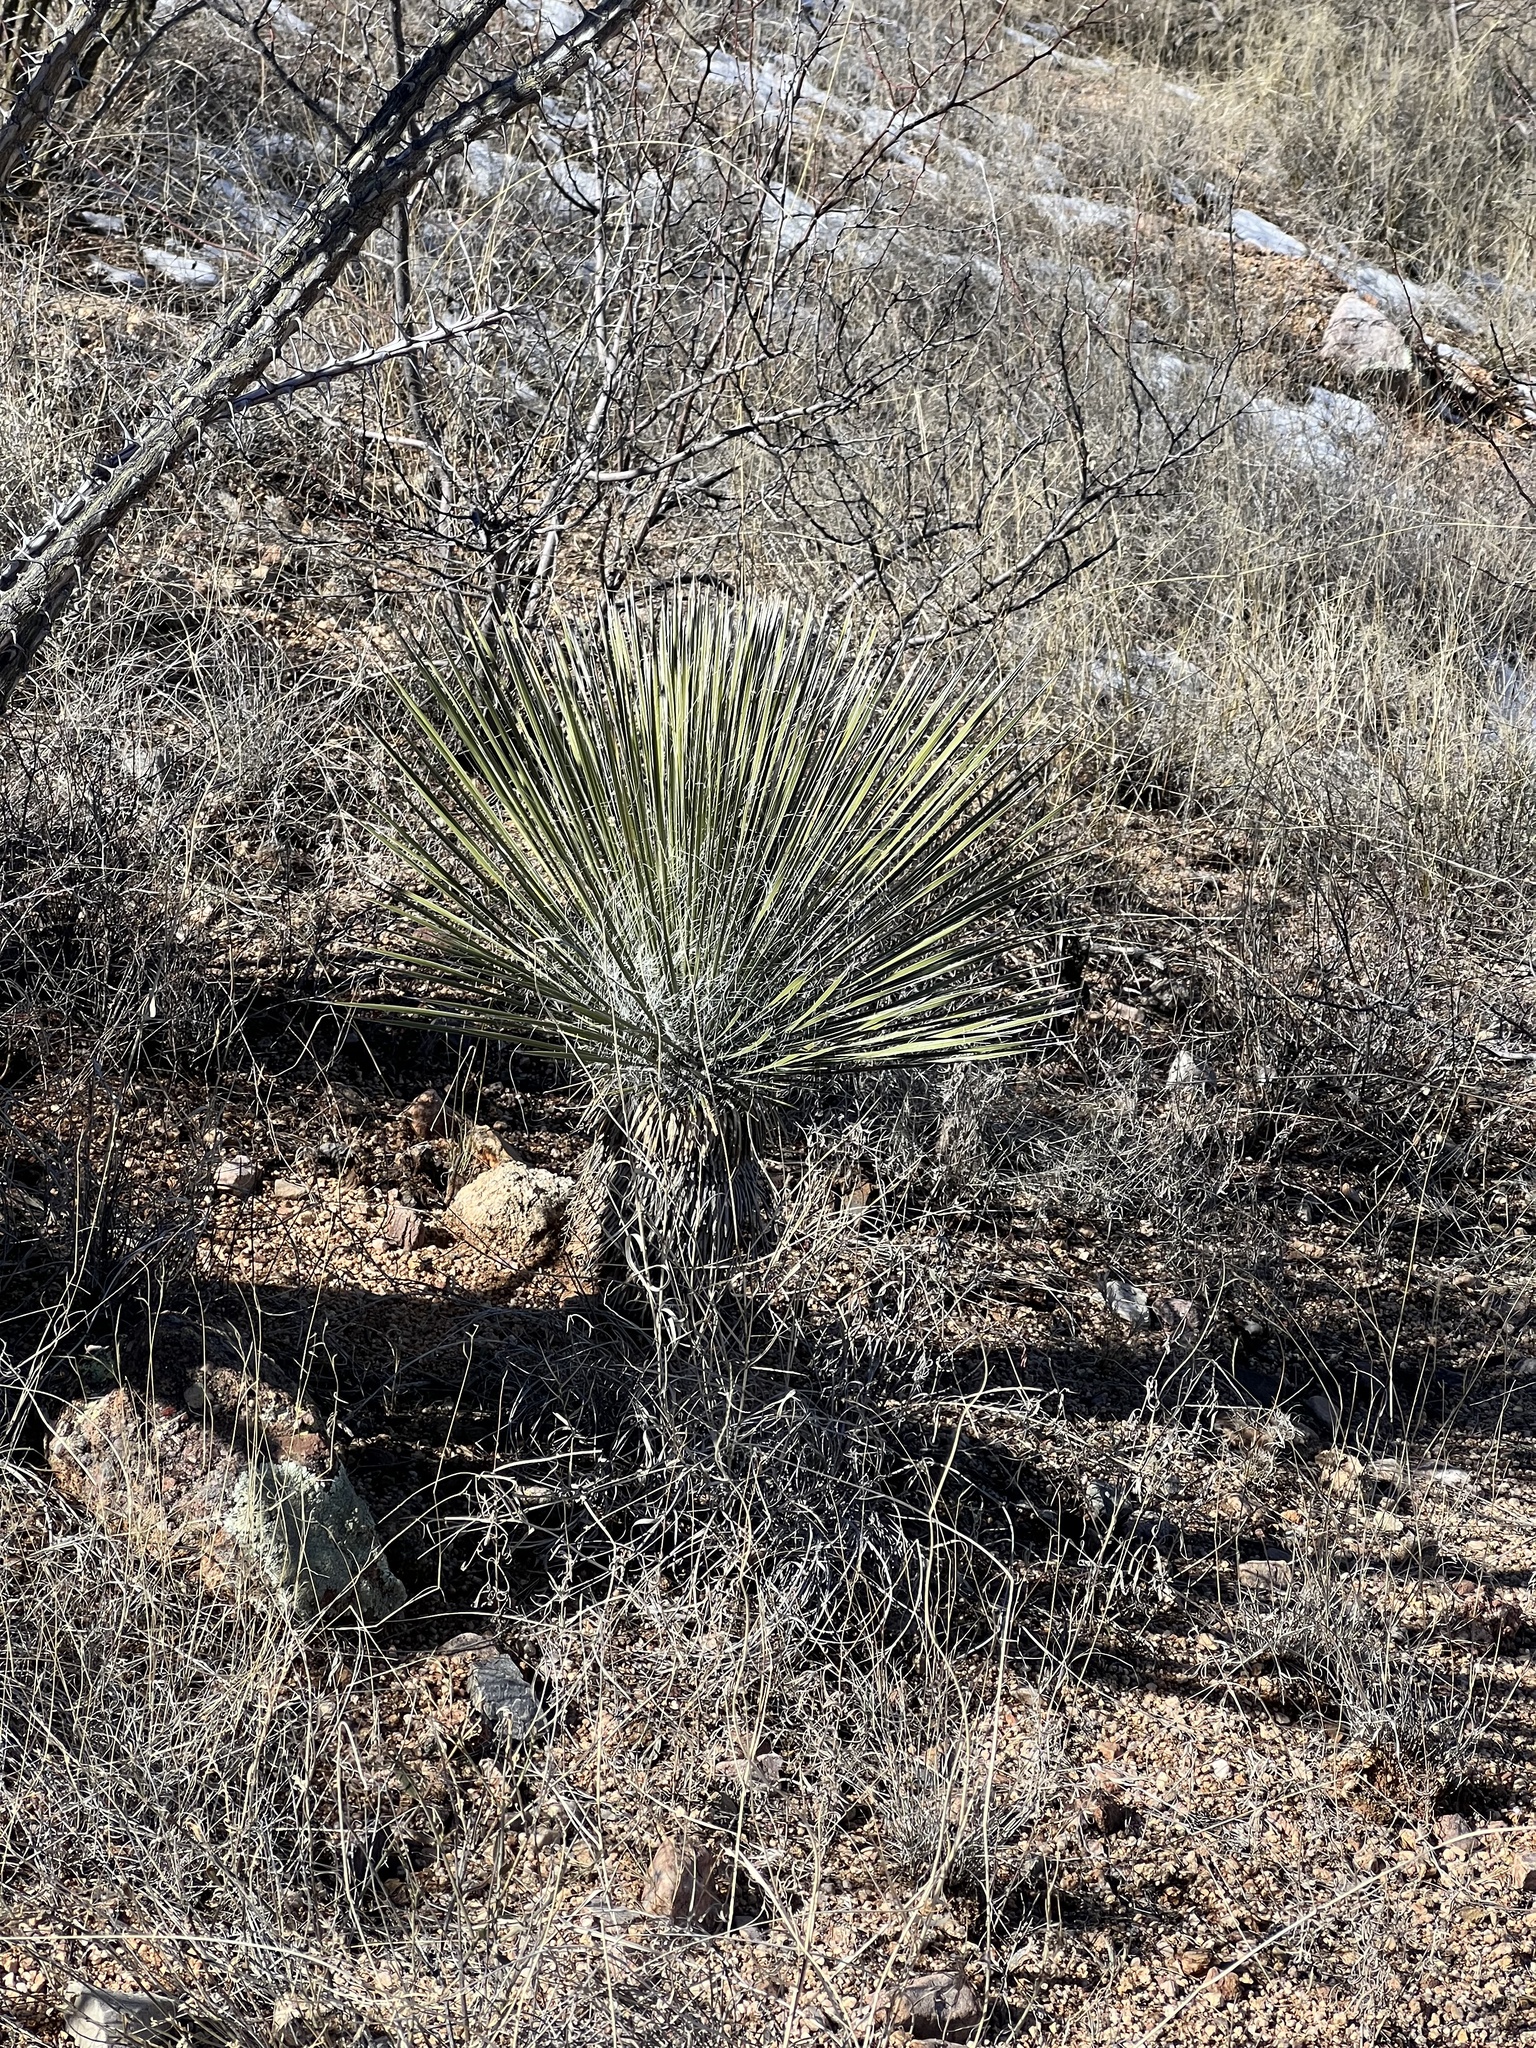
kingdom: Plantae
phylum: Tracheophyta
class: Liliopsida
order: Asparagales
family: Asparagaceae
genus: Yucca
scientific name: Yucca elata
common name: Palmella
